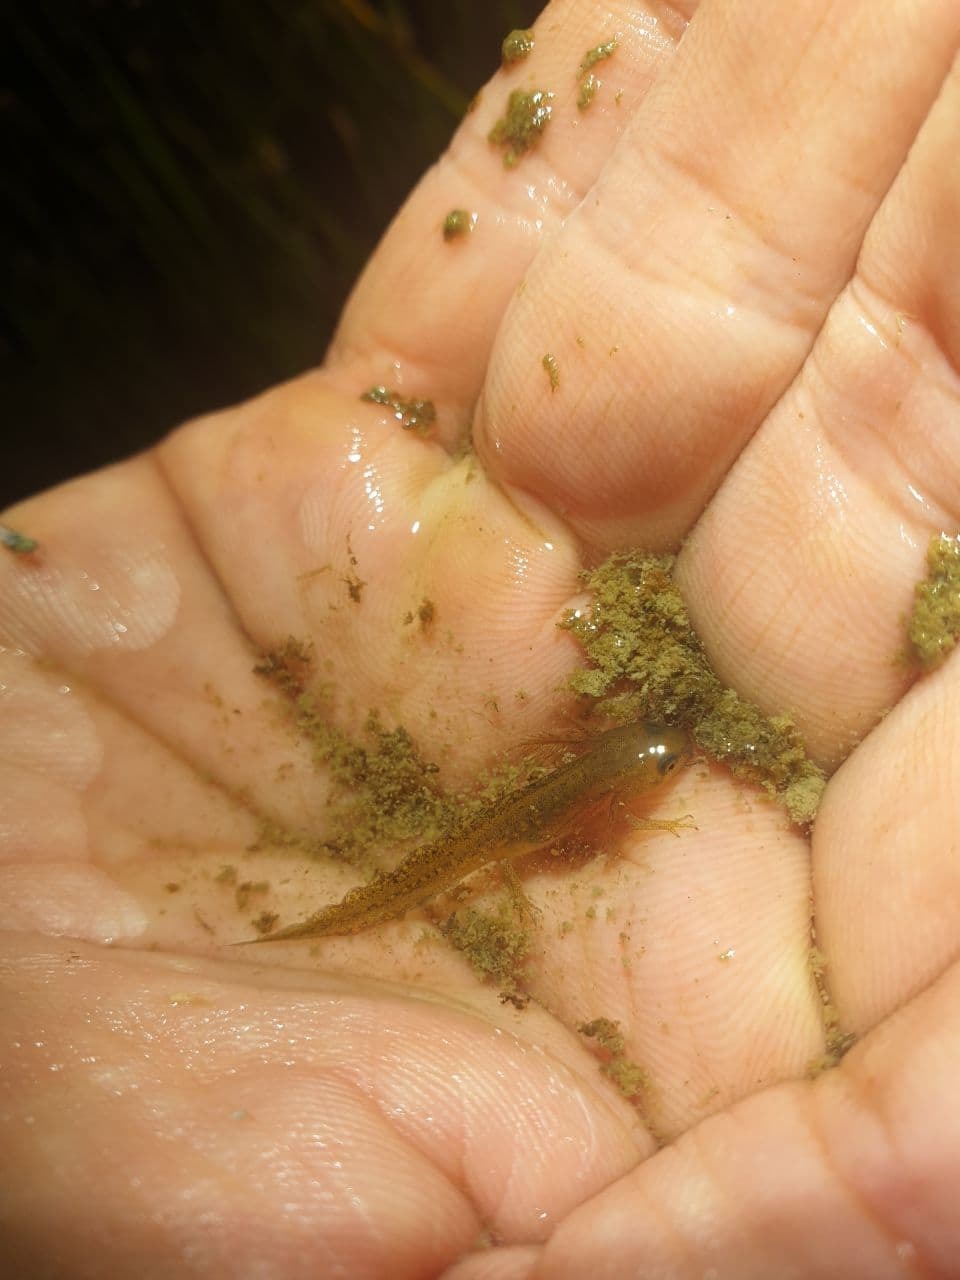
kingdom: Animalia
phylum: Chordata
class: Amphibia
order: Caudata
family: Salamandridae
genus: Lissotriton
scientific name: Lissotriton vulgaris
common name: Smooth newt
